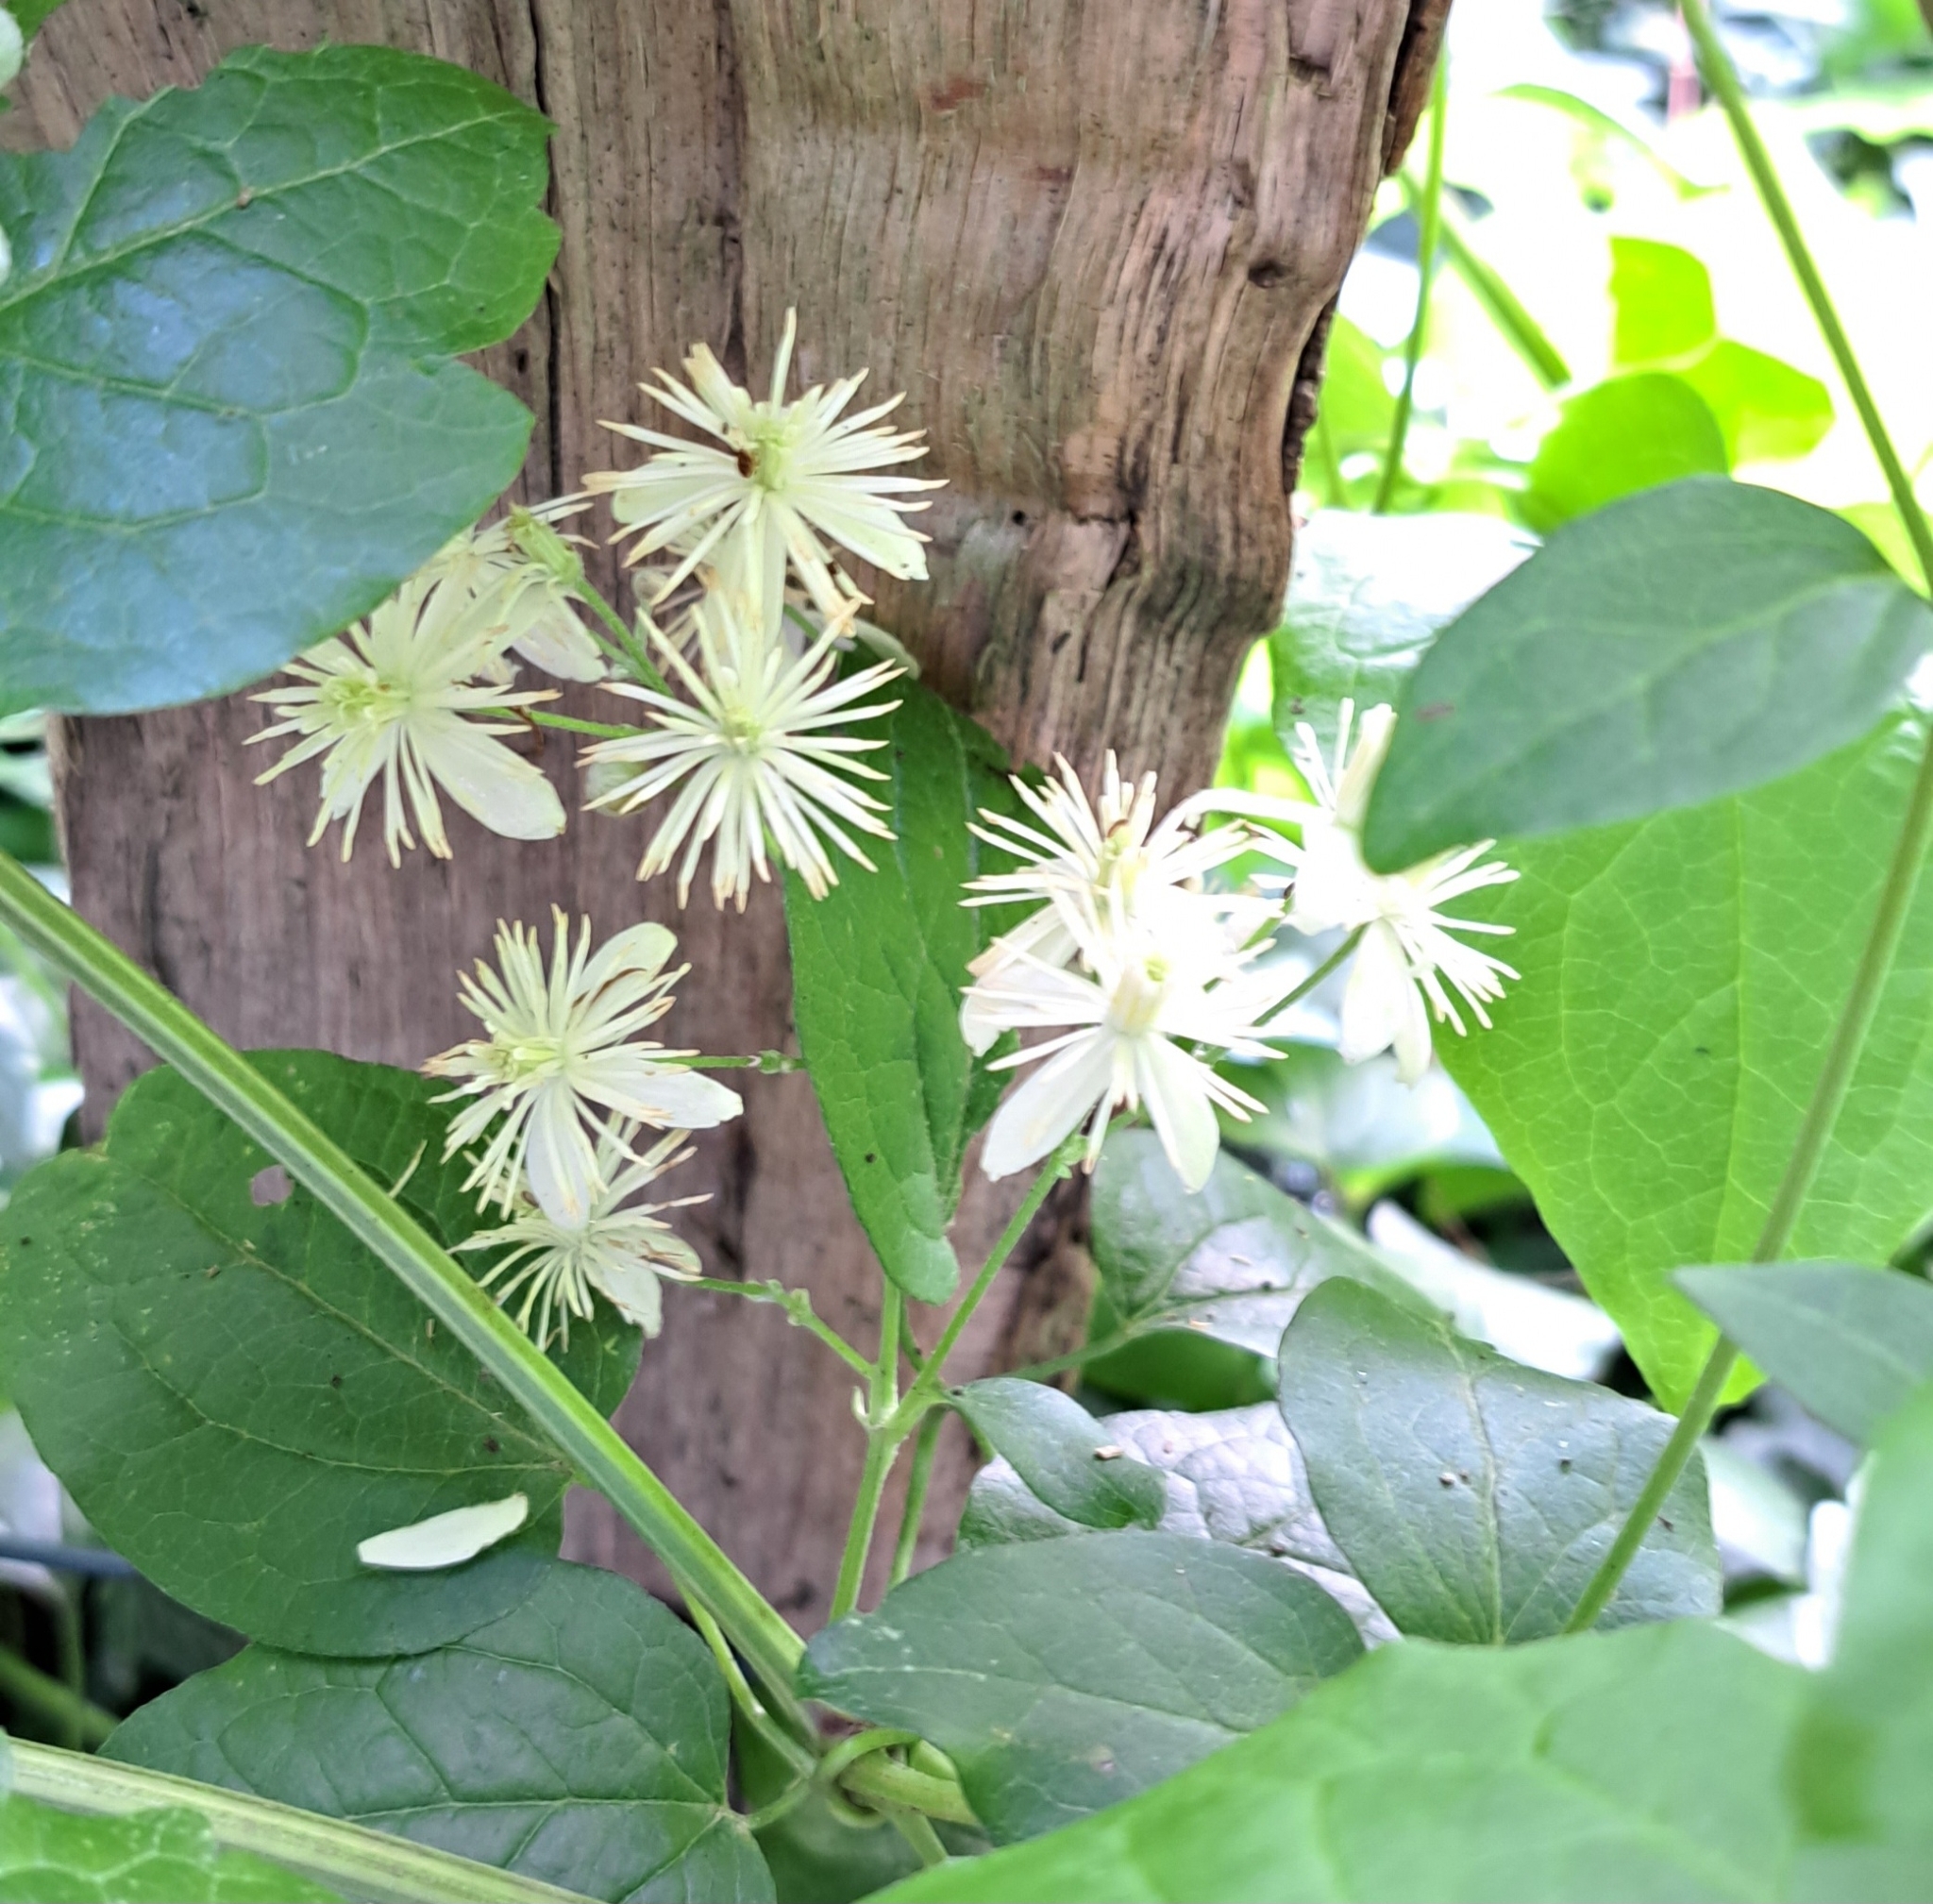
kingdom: Plantae
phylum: Tracheophyta
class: Magnoliopsida
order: Ranunculales
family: Ranunculaceae
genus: Clematis
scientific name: Clematis vitalba
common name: Evergreen clematis
